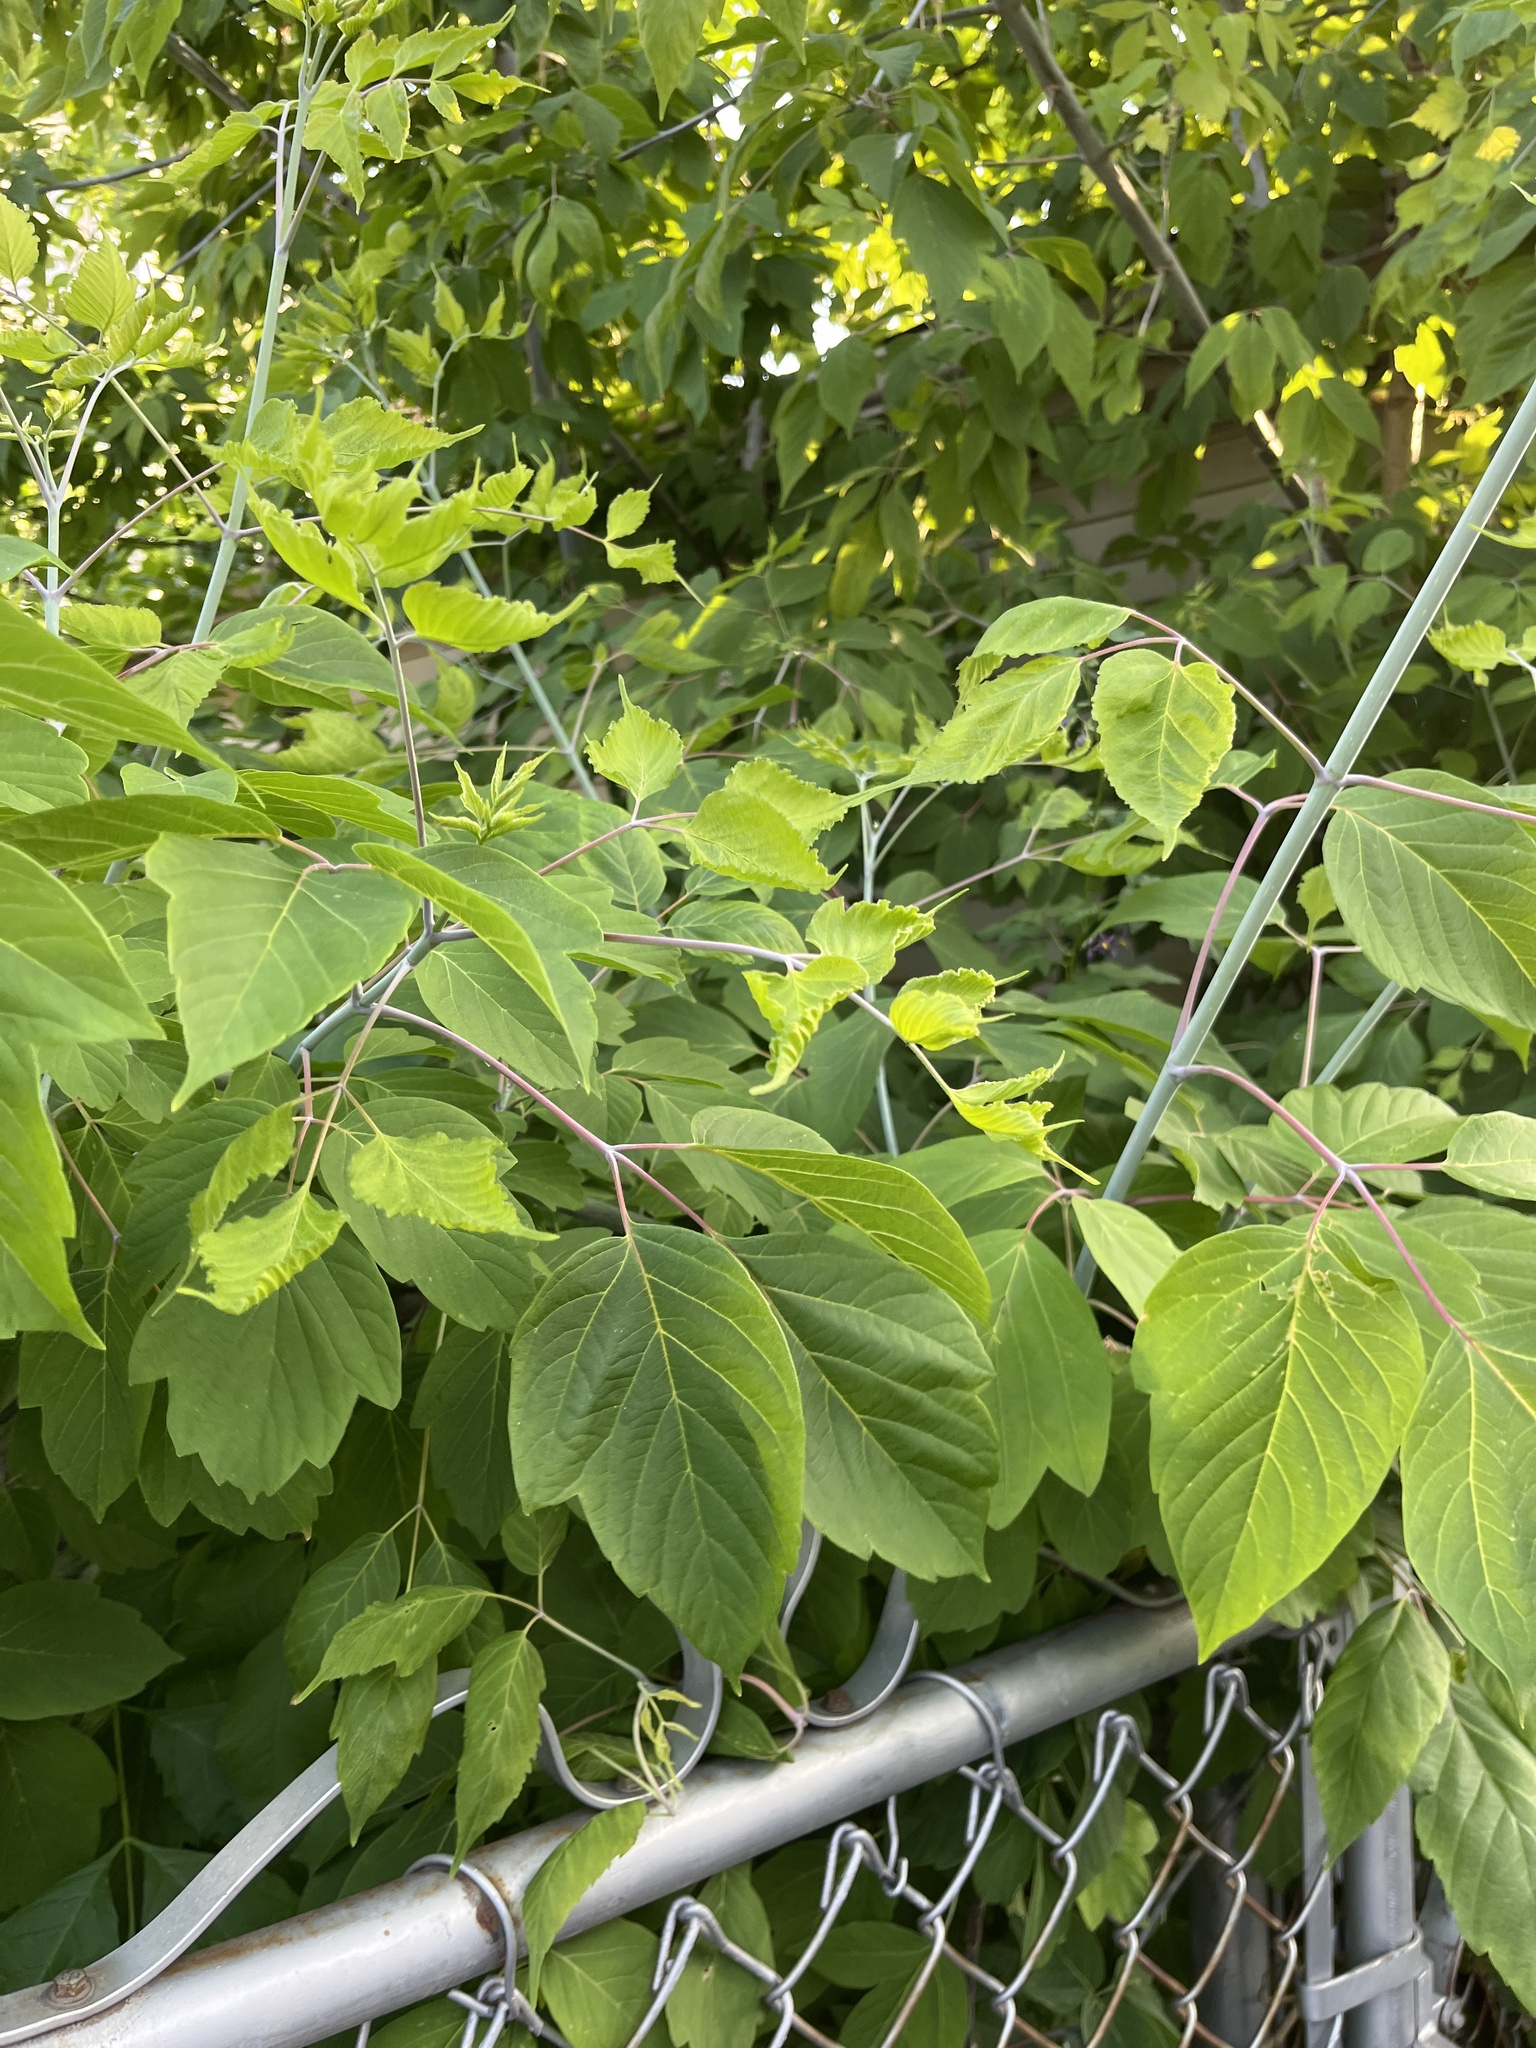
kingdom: Plantae
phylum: Tracheophyta
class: Magnoliopsida
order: Sapindales
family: Sapindaceae
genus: Acer
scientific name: Acer negundo
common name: Ashleaf maple
